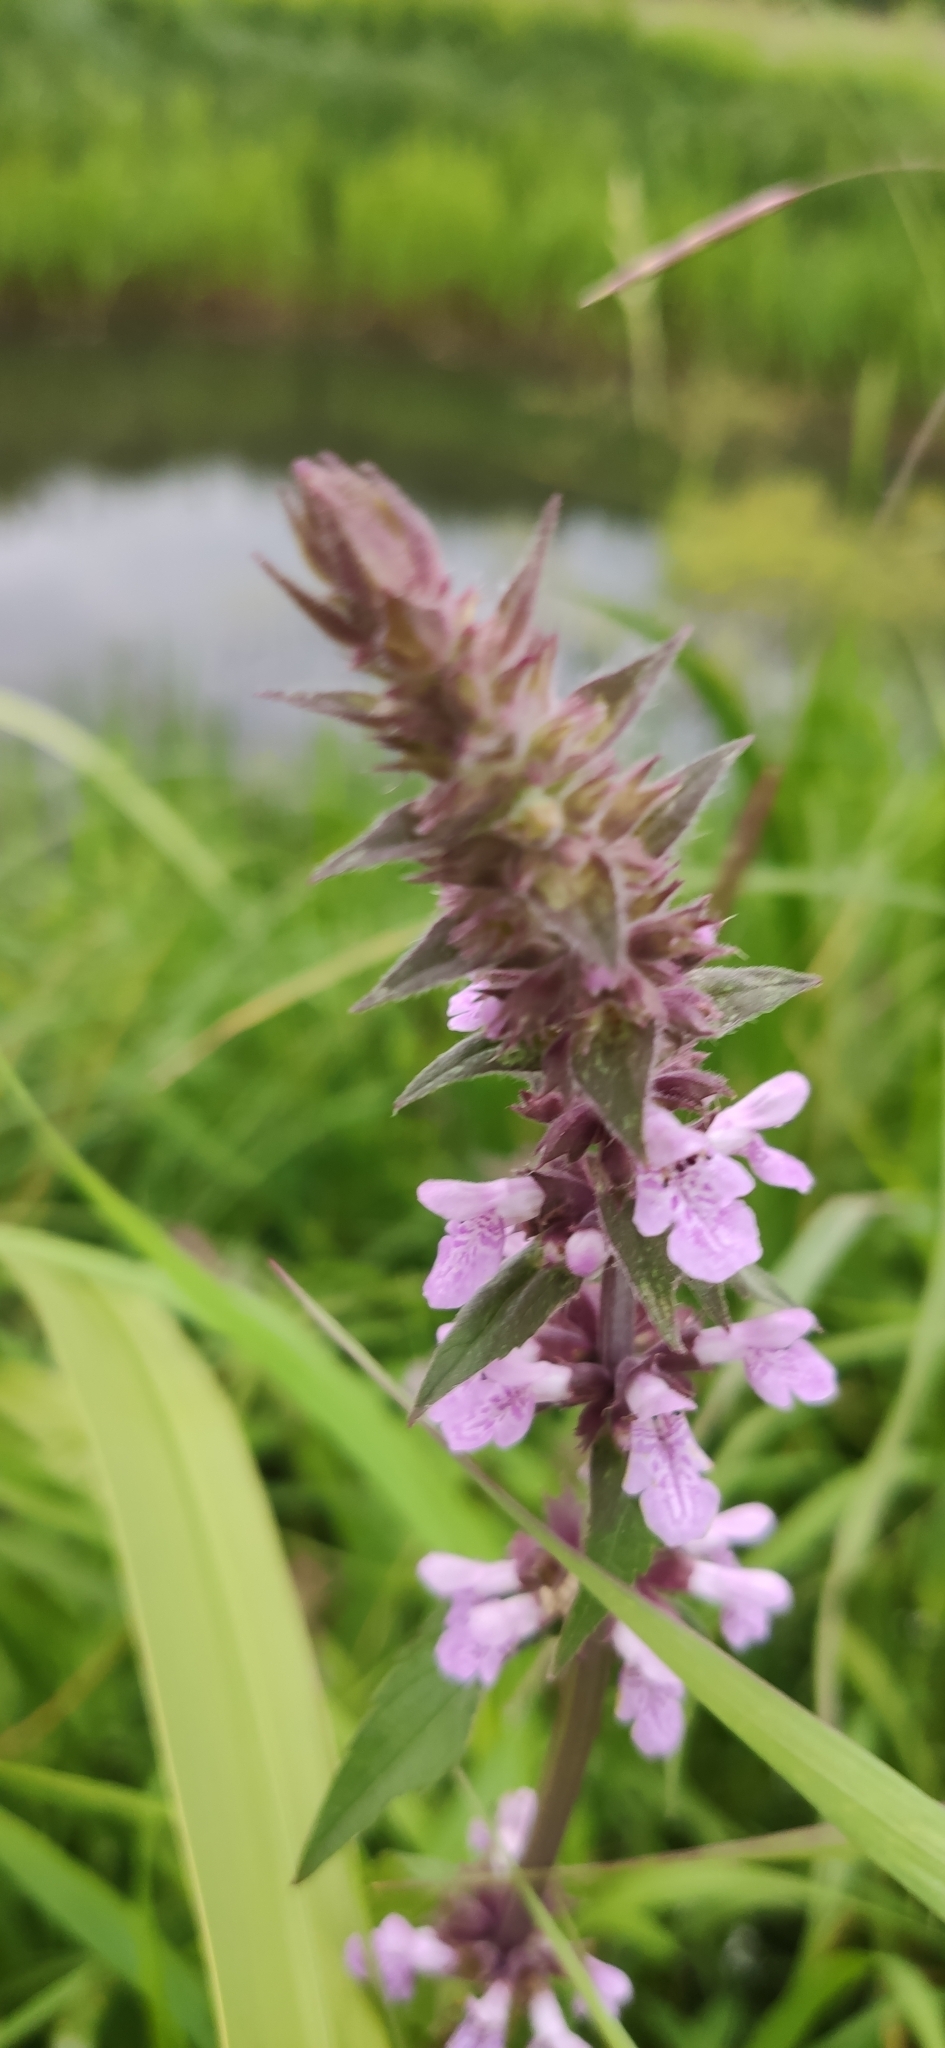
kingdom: Plantae
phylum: Tracheophyta
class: Magnoliopsida
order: Lamiales
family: Lamiaceae
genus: Stachys
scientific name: Stachys palustris
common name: Marsh woundwort
